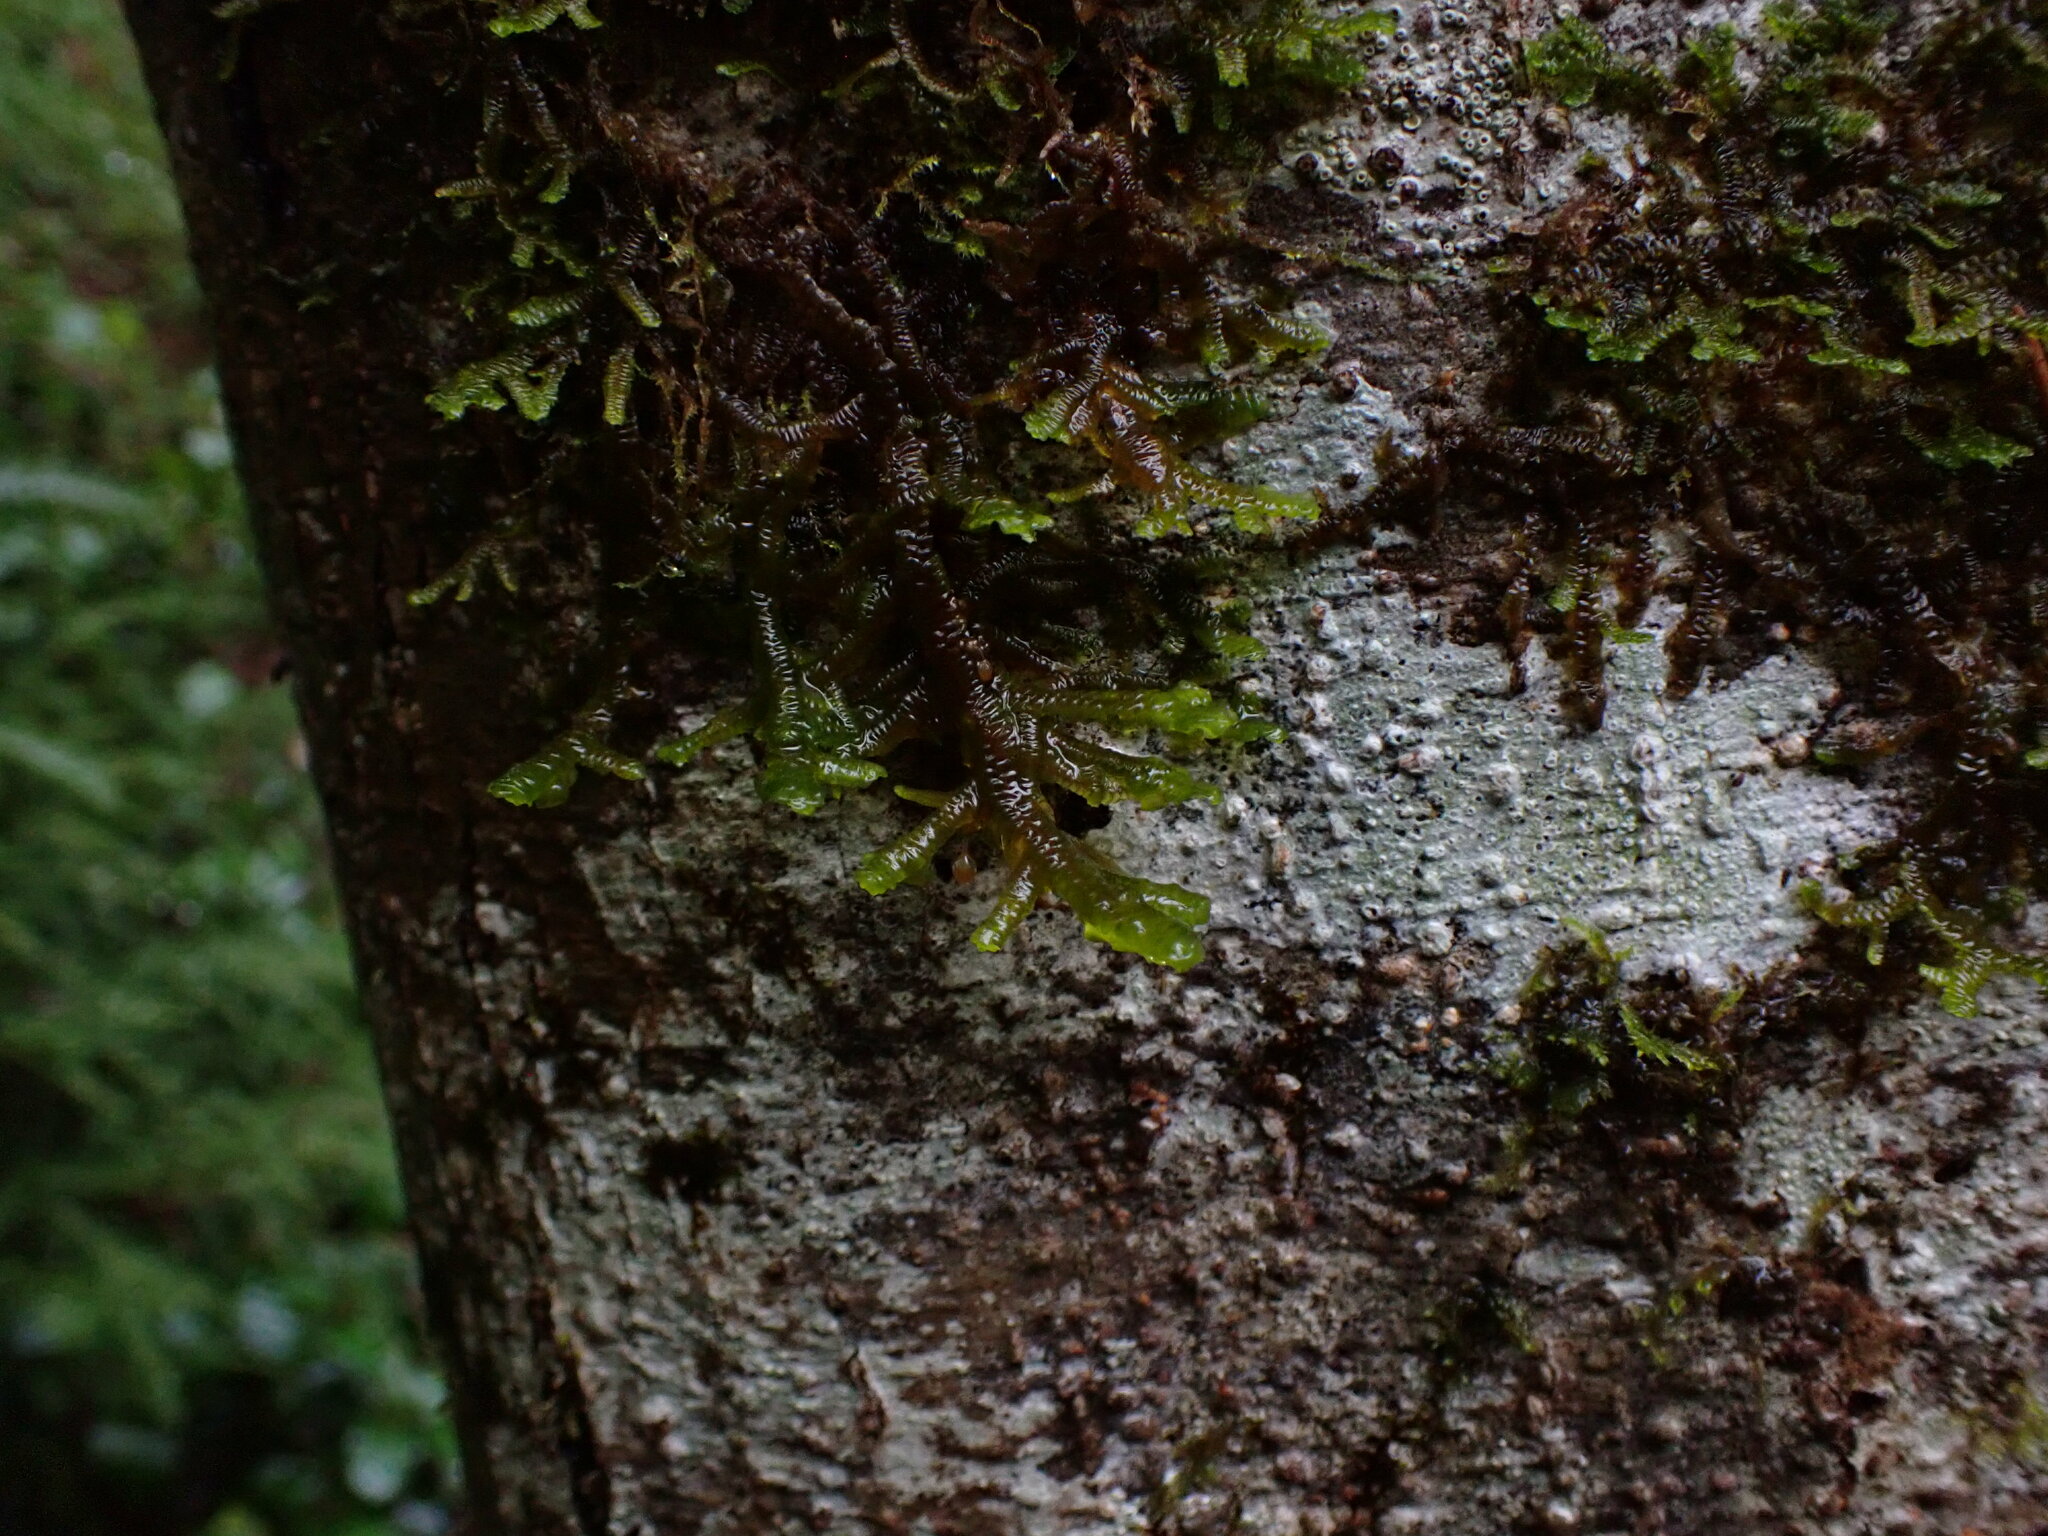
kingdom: Plantae
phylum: Marchantiophyta
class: Jungermanniopsida
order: Porellales
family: Porellaceae
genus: Porella
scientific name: Porella navicularis
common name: Tree ruffle liverwort
